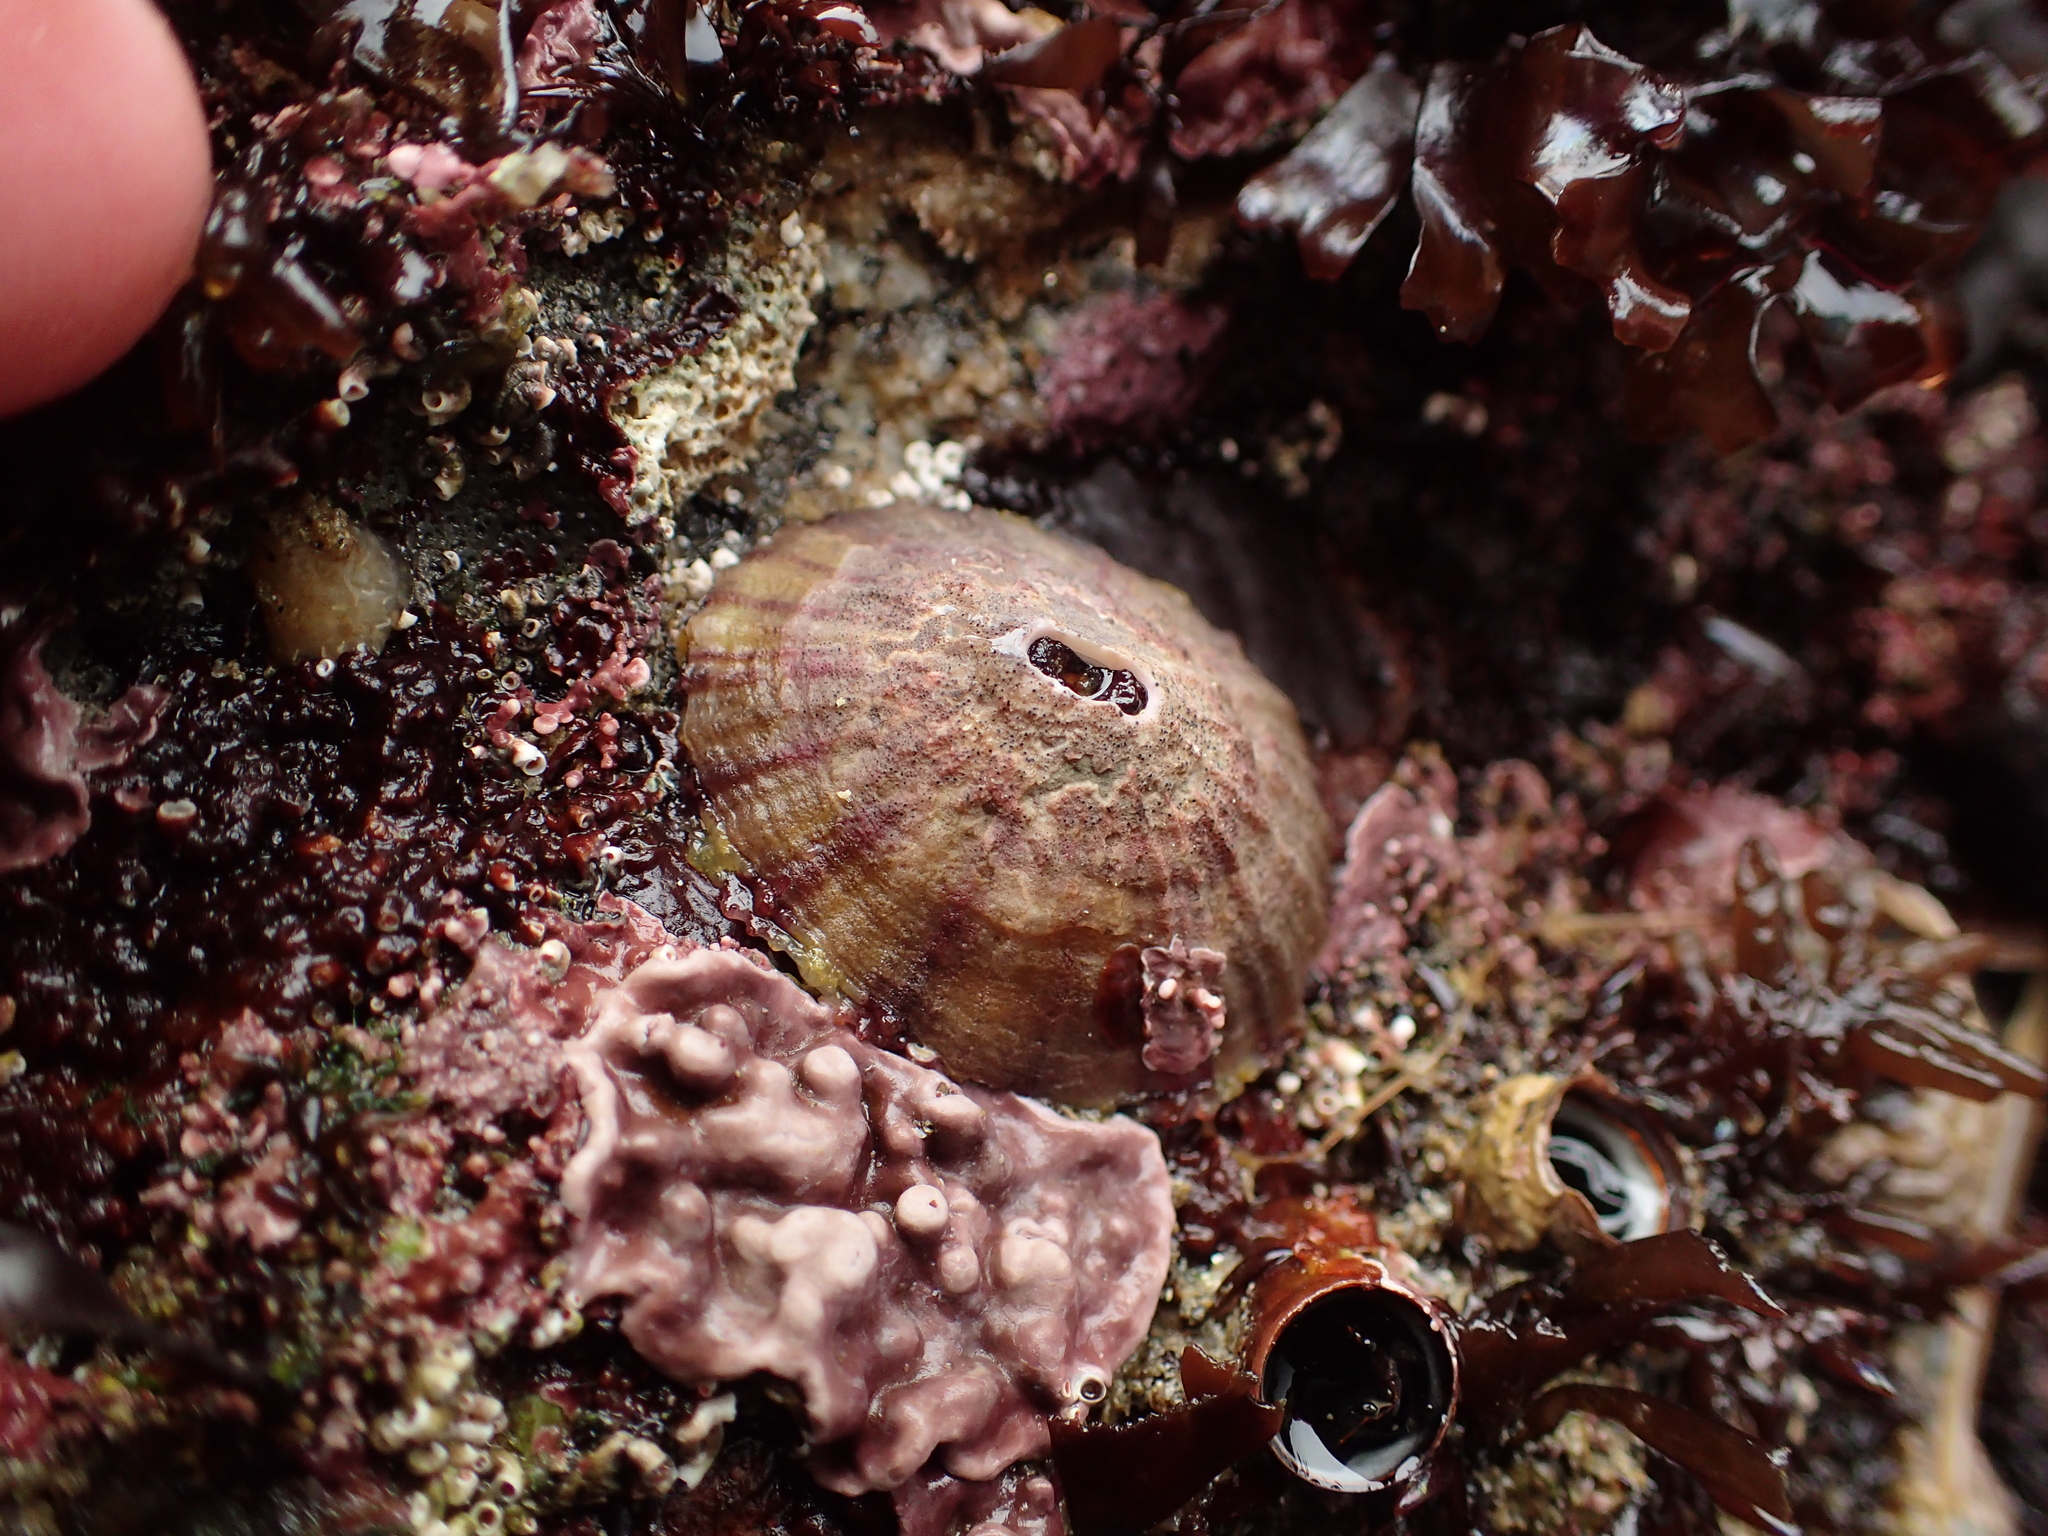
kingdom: Animalia
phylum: Mollusca
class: Gastropoda
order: Lepetellida
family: Fissurellidae
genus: Fissurella
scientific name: Fissurella volcano
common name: Volcano keyhole limpet
